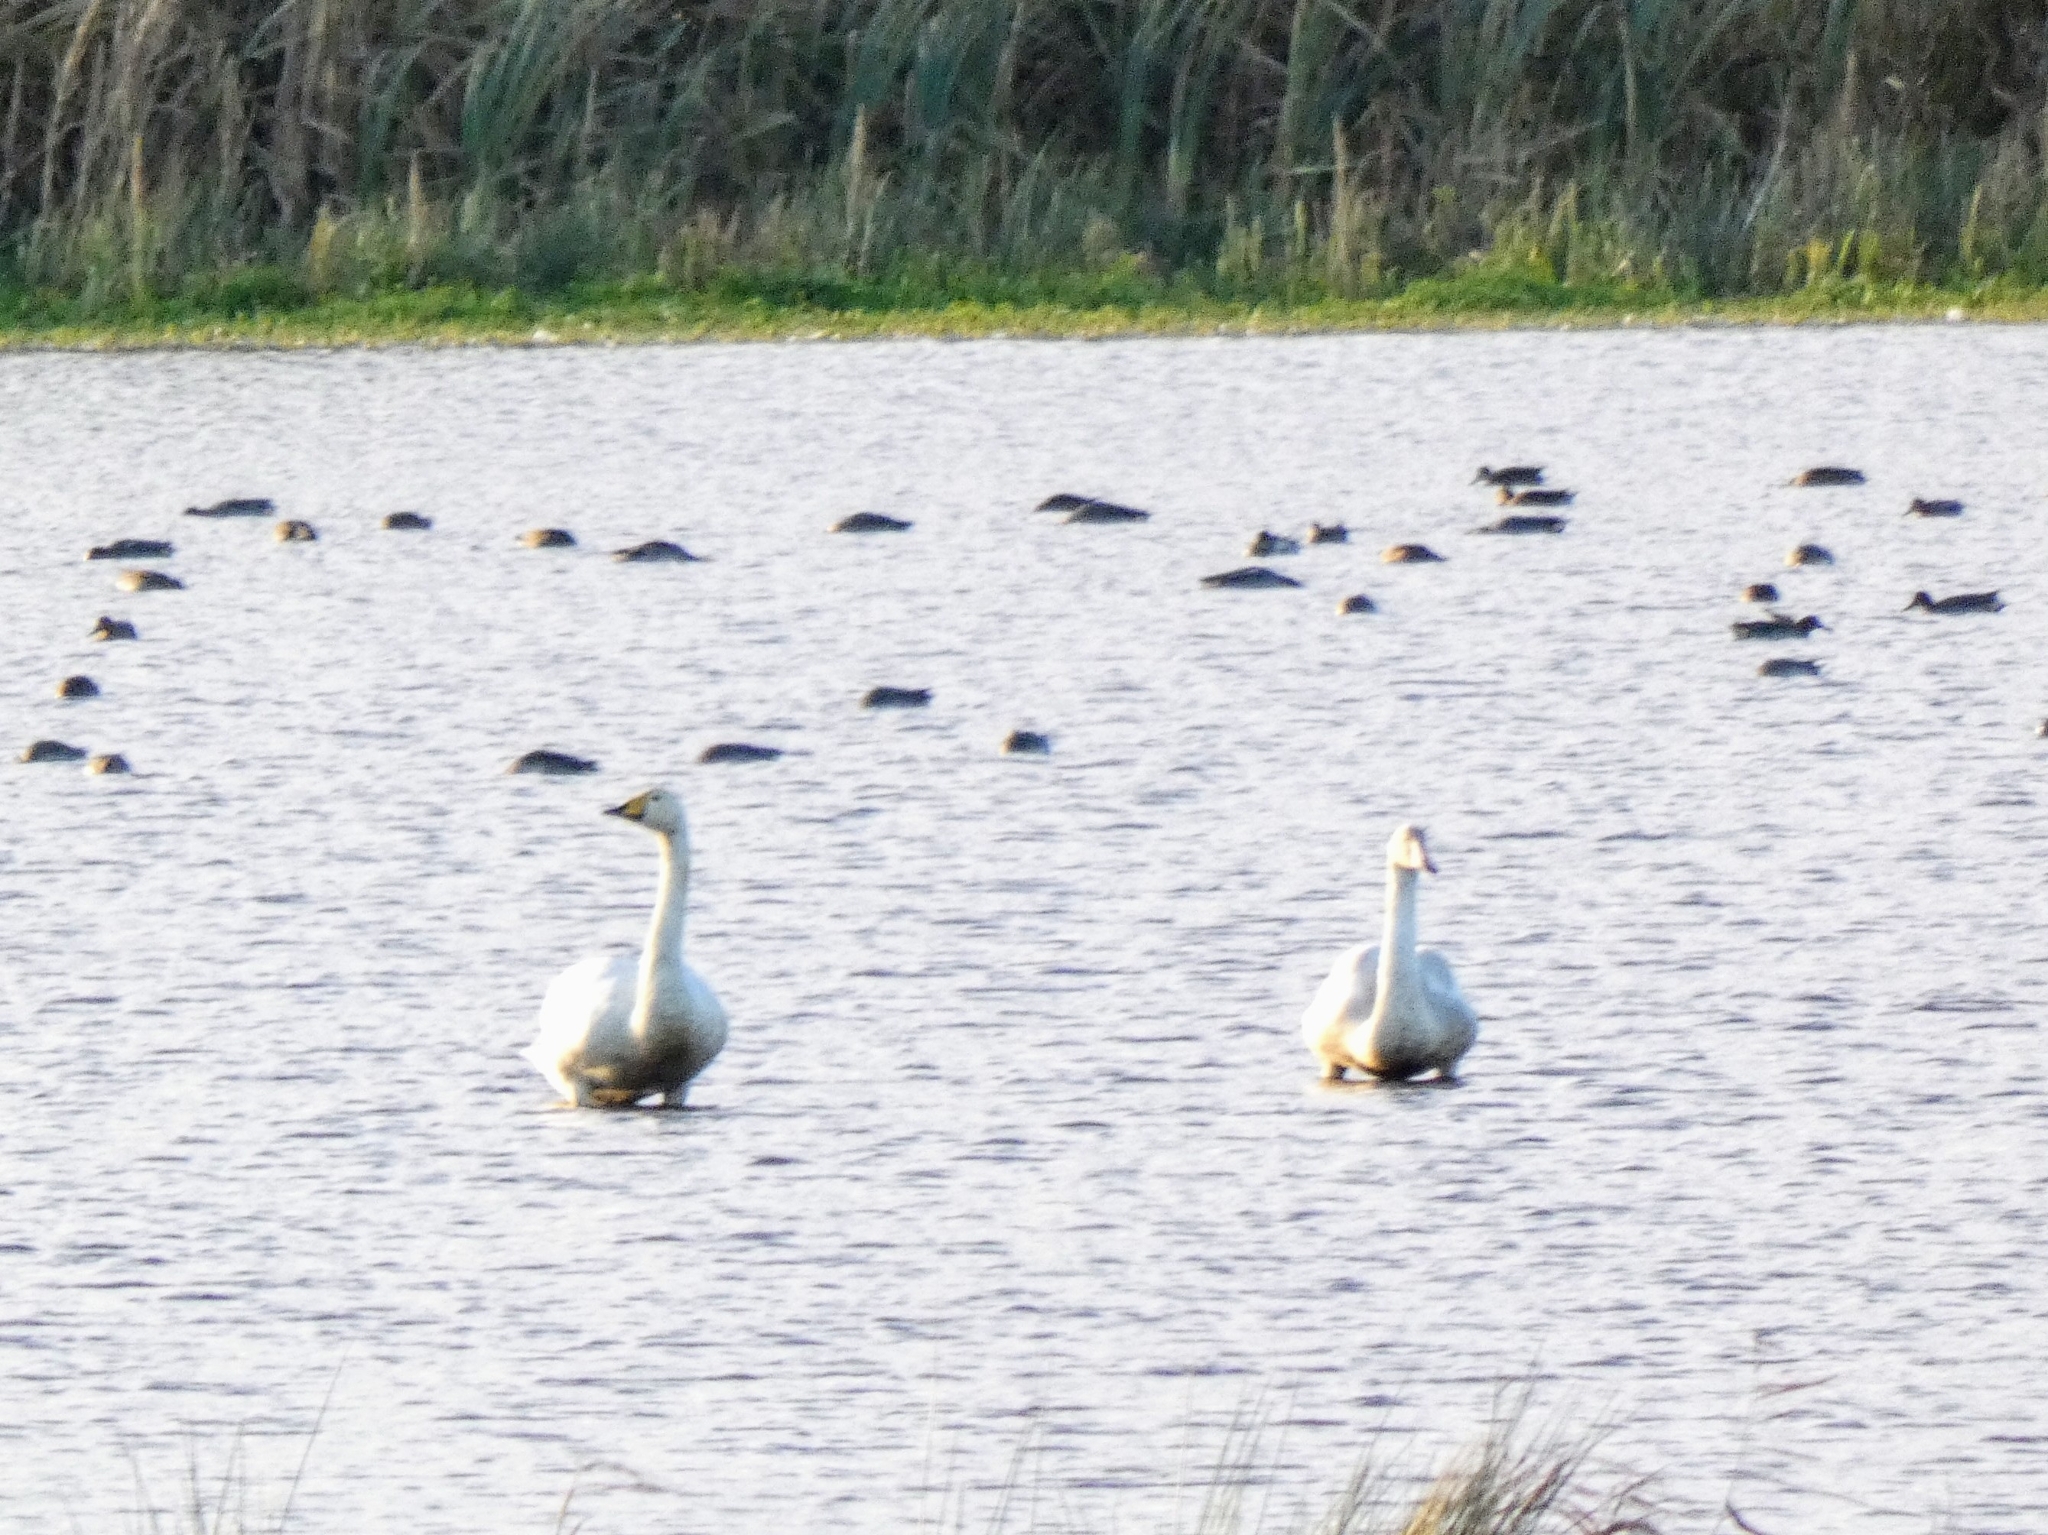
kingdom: Animalia
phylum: Chordata
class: Aves
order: Anseriformes
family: Anatidae
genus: Cygnus
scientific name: Cygnus cygnus
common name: Whooper swan
